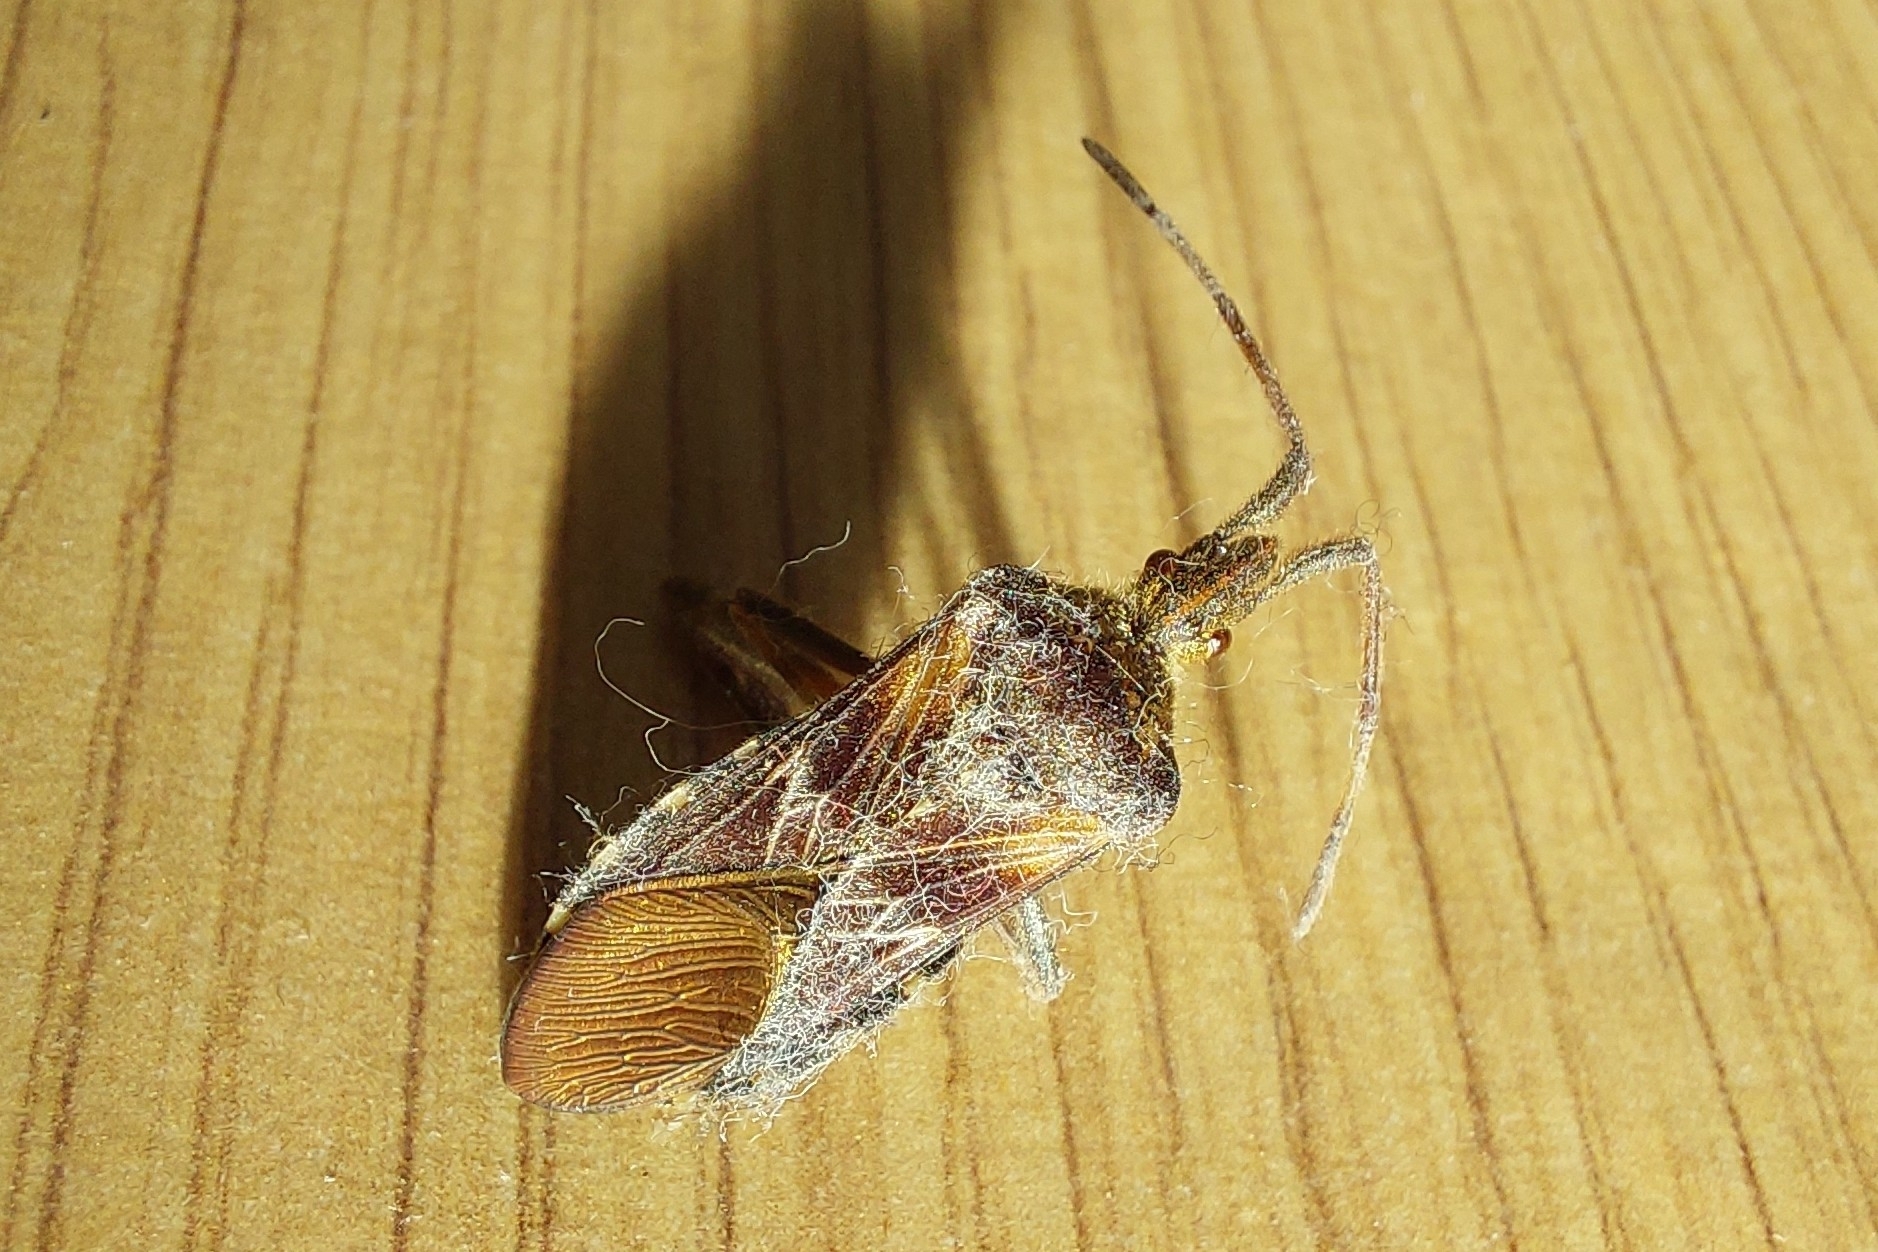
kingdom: Animalia
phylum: Arthropoda
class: Insecta
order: Hemiptera
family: Coreidae
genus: Leptoglossus
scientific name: Leptoglossus occidentalis
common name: Western conifer-seed bug
